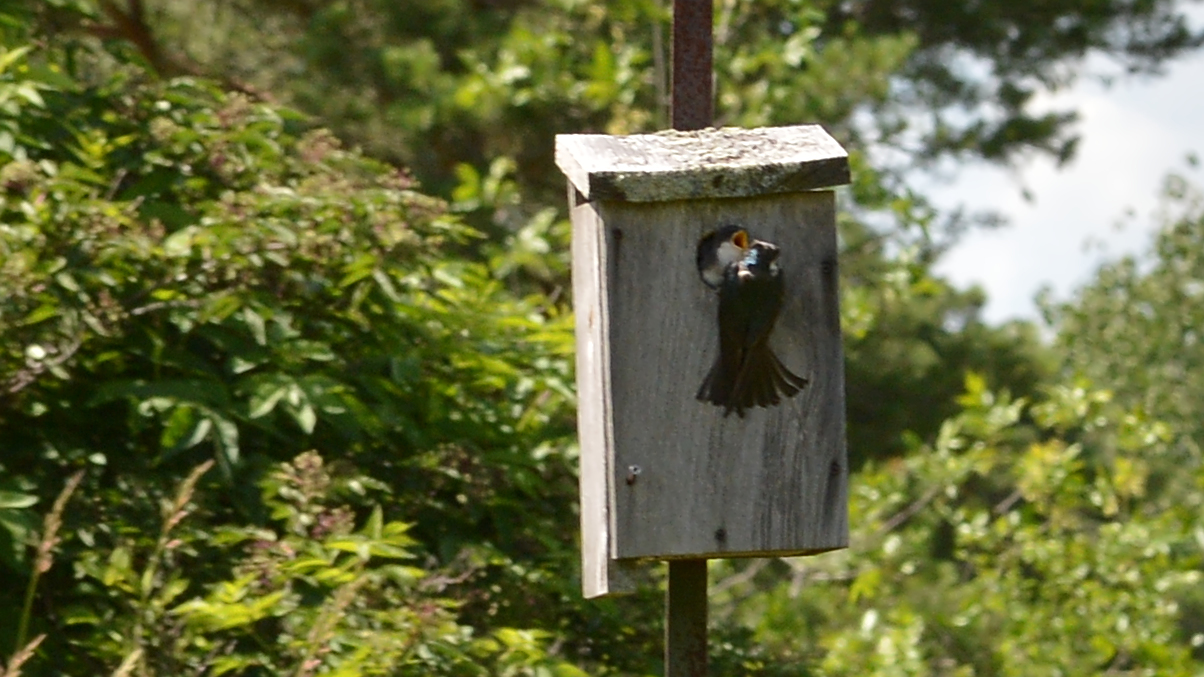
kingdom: Animalia
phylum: Chordata
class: Aves
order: Passeriformes
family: Hirundinidae
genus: Tachycineta
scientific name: Tachycineta bicolor
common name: Tree swallow
